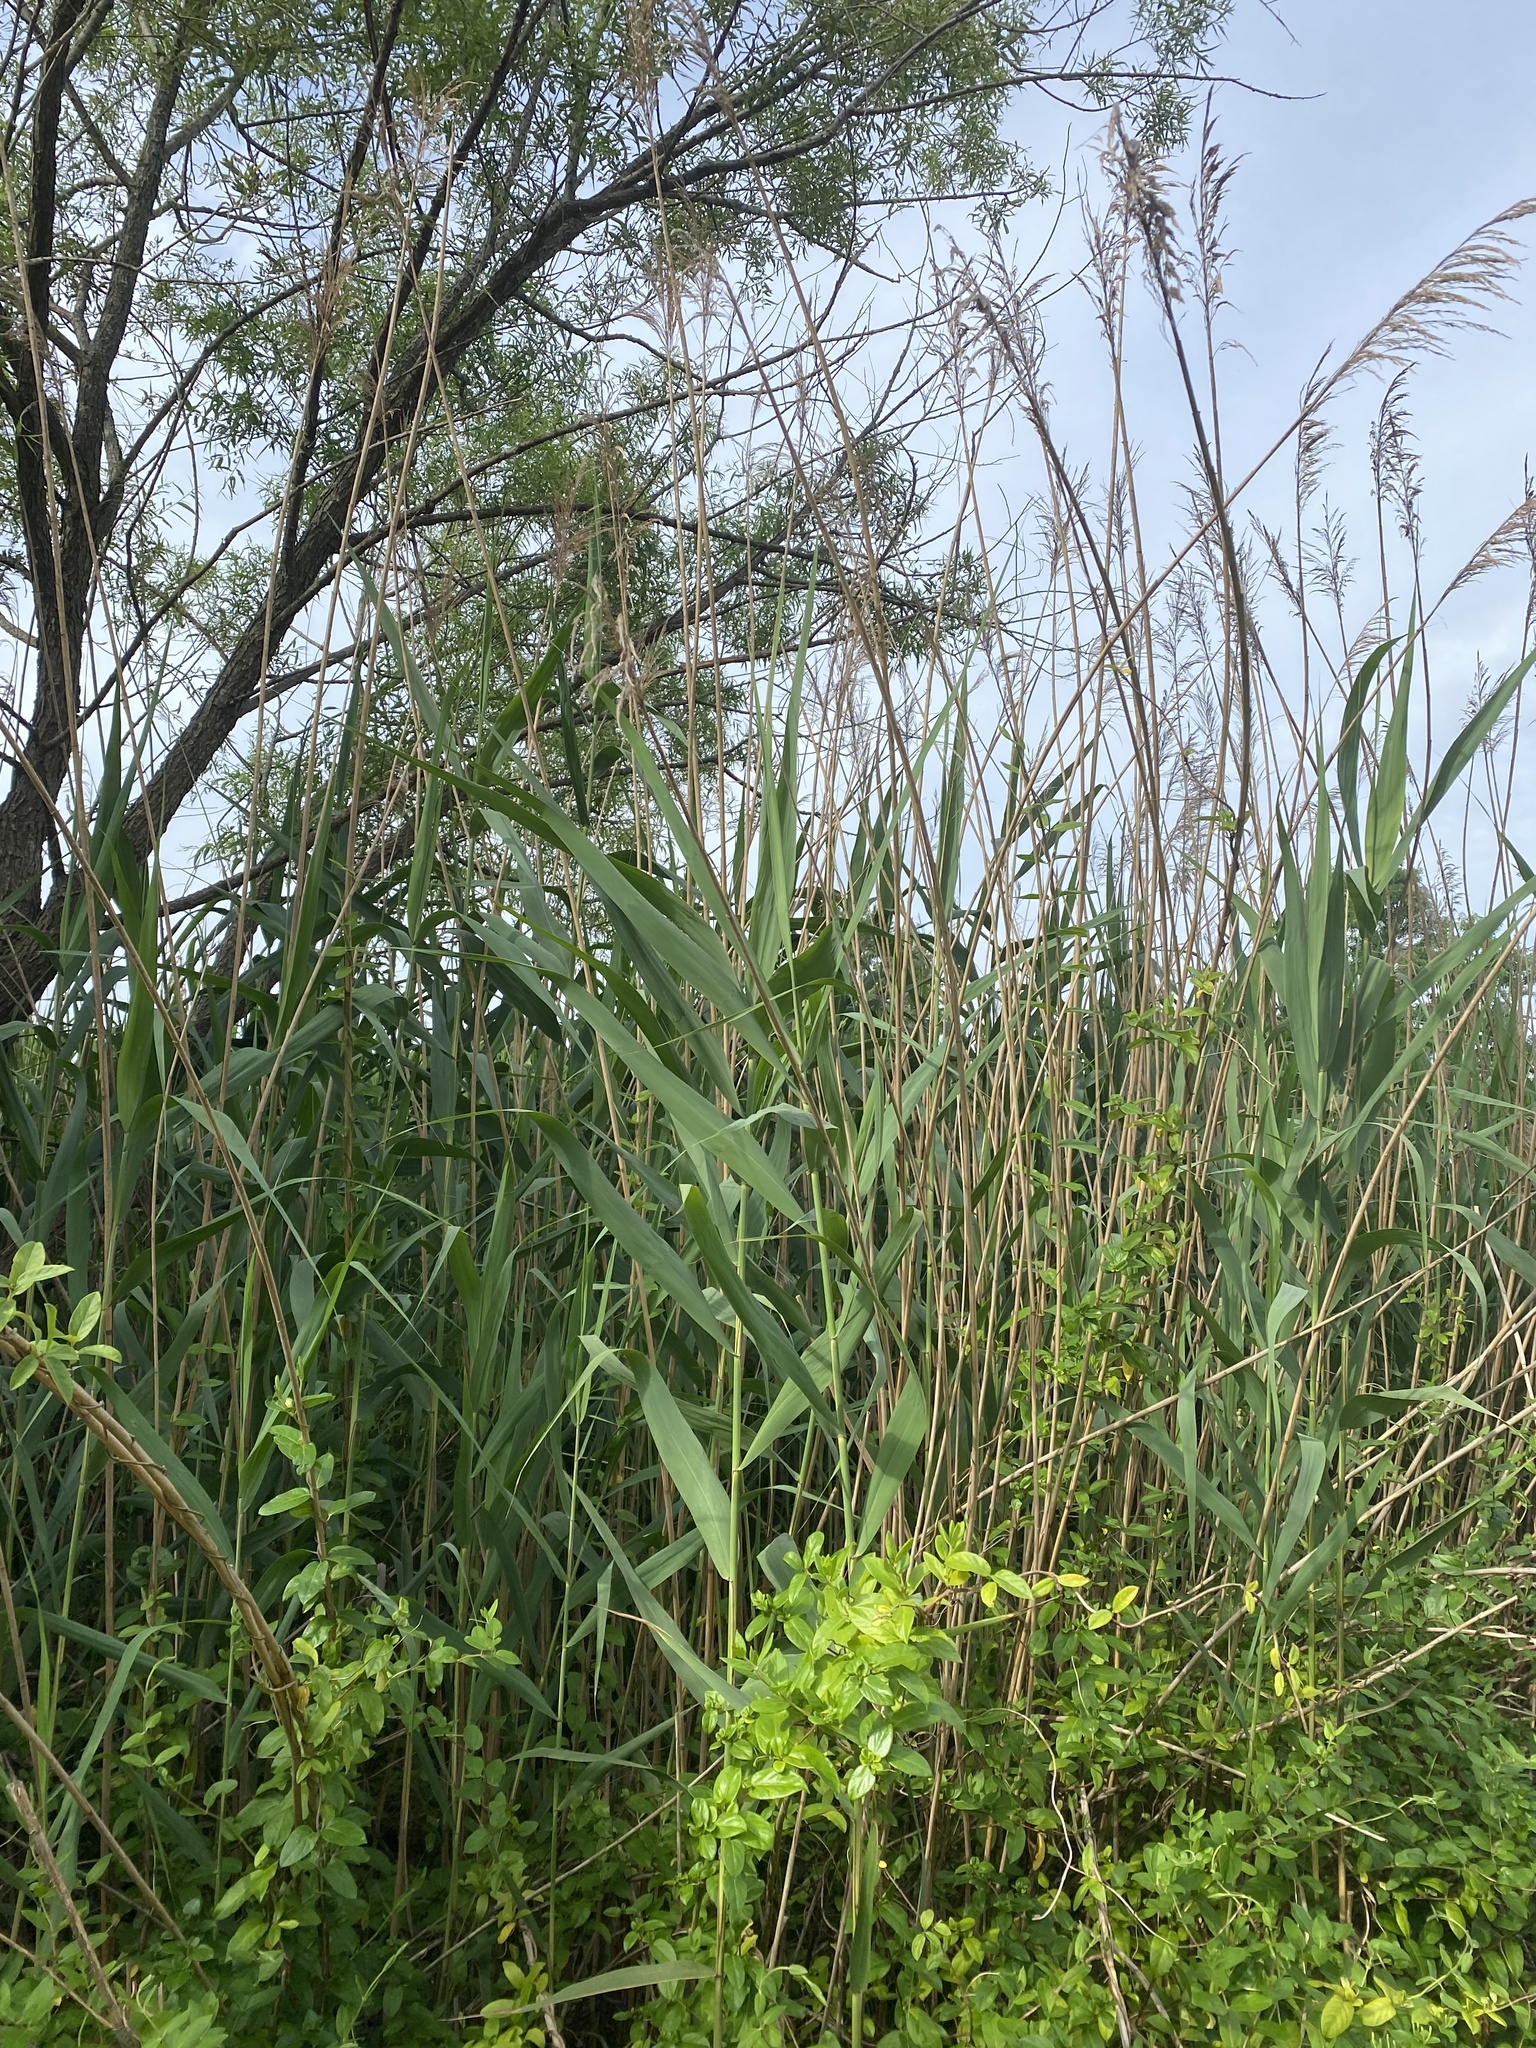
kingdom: Plantae
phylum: Tracheophyta
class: Liliopsida
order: Poales
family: Poaceae
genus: Phragmites
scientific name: Phragmites australis
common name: Common reed
